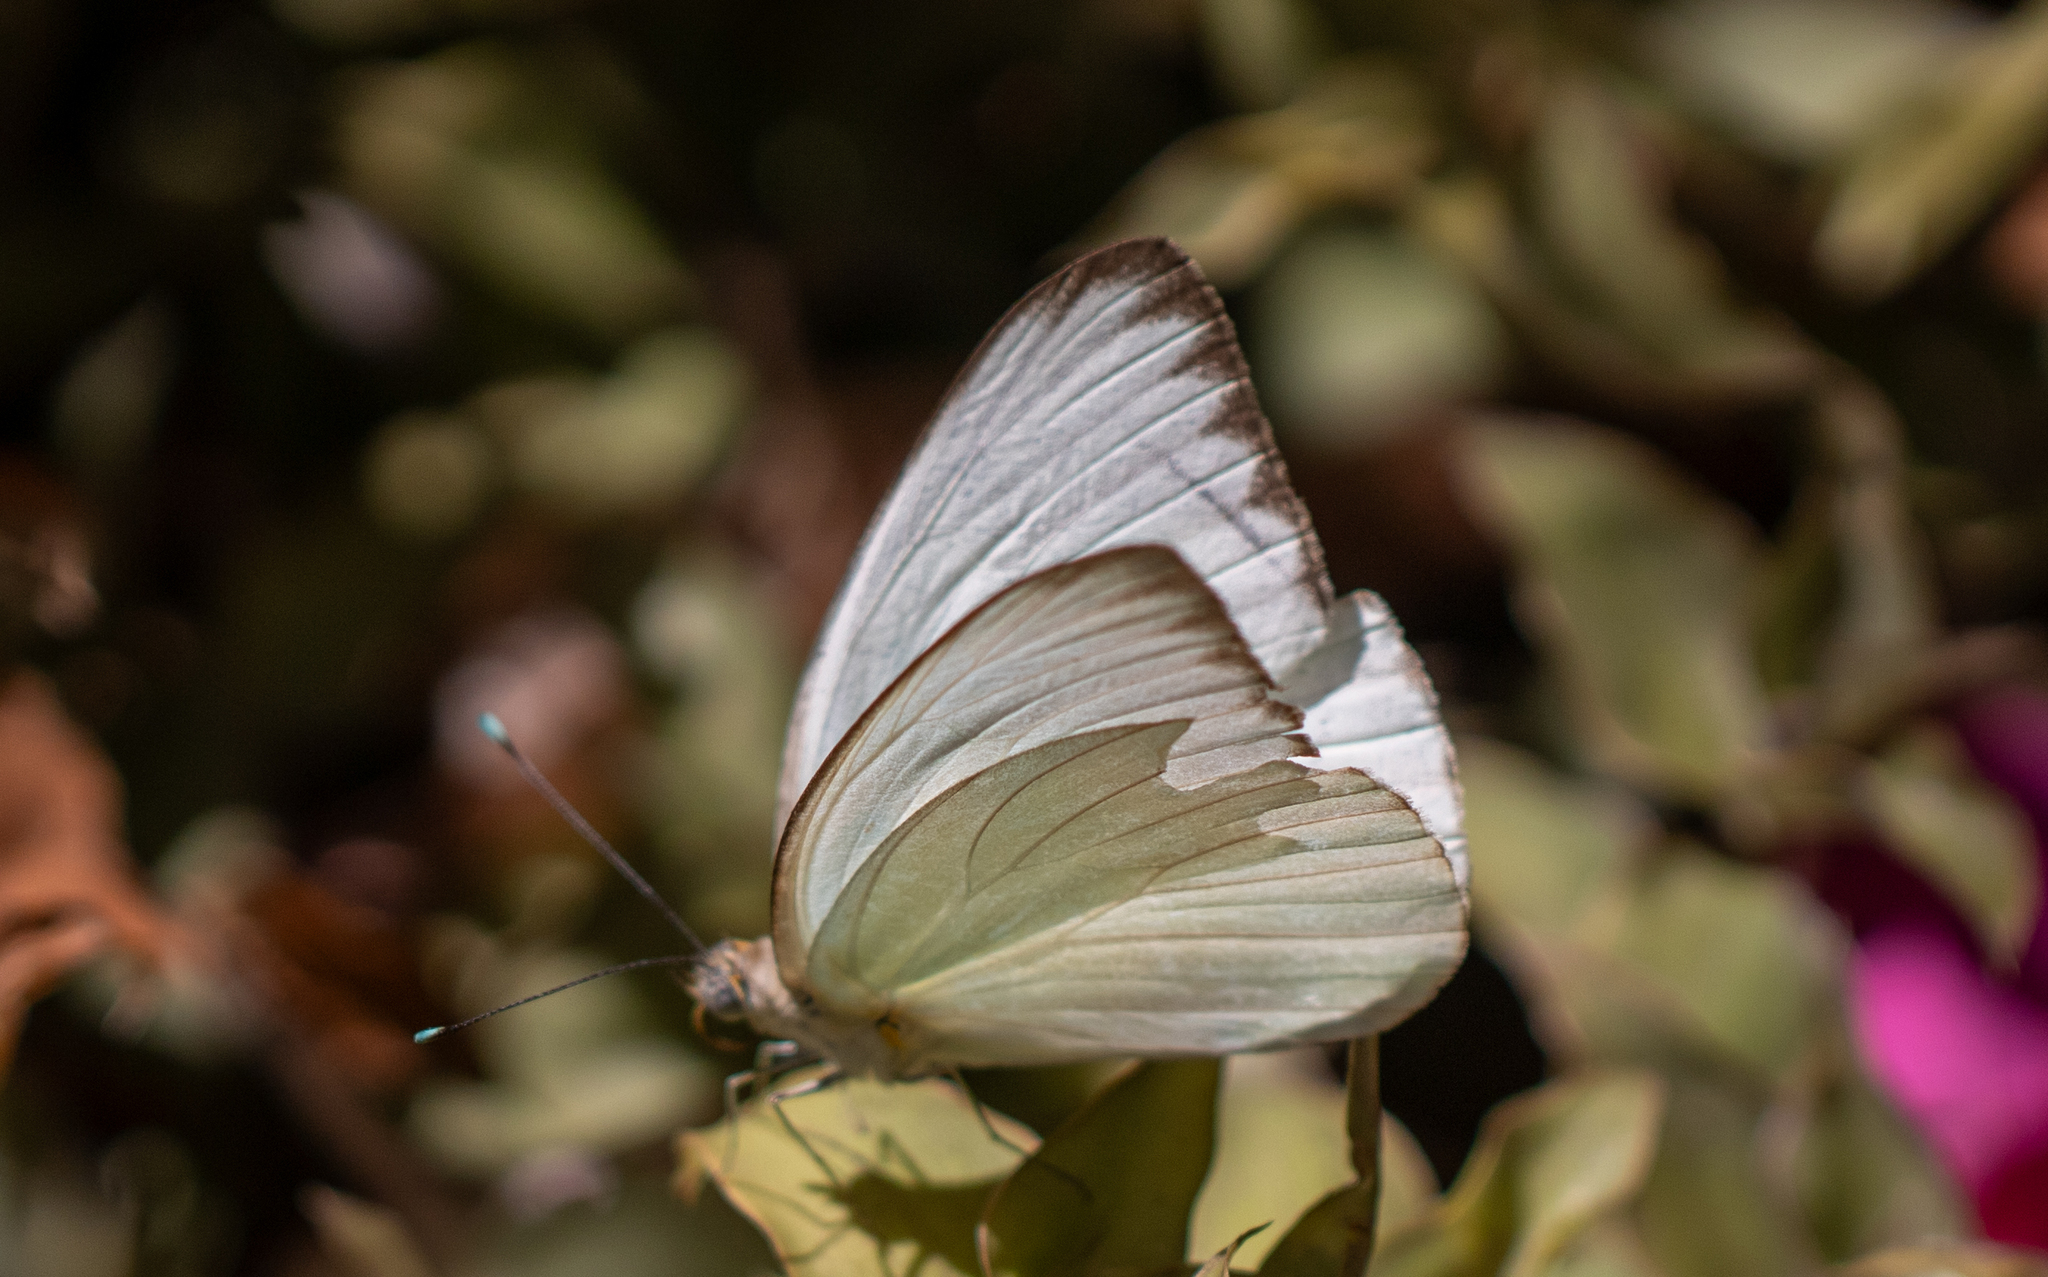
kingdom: Animalia
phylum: Arthropoda
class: Insecta
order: Lepidoptera
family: Pieridae
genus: Ascia
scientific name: Ascia monuste
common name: Great southern white
